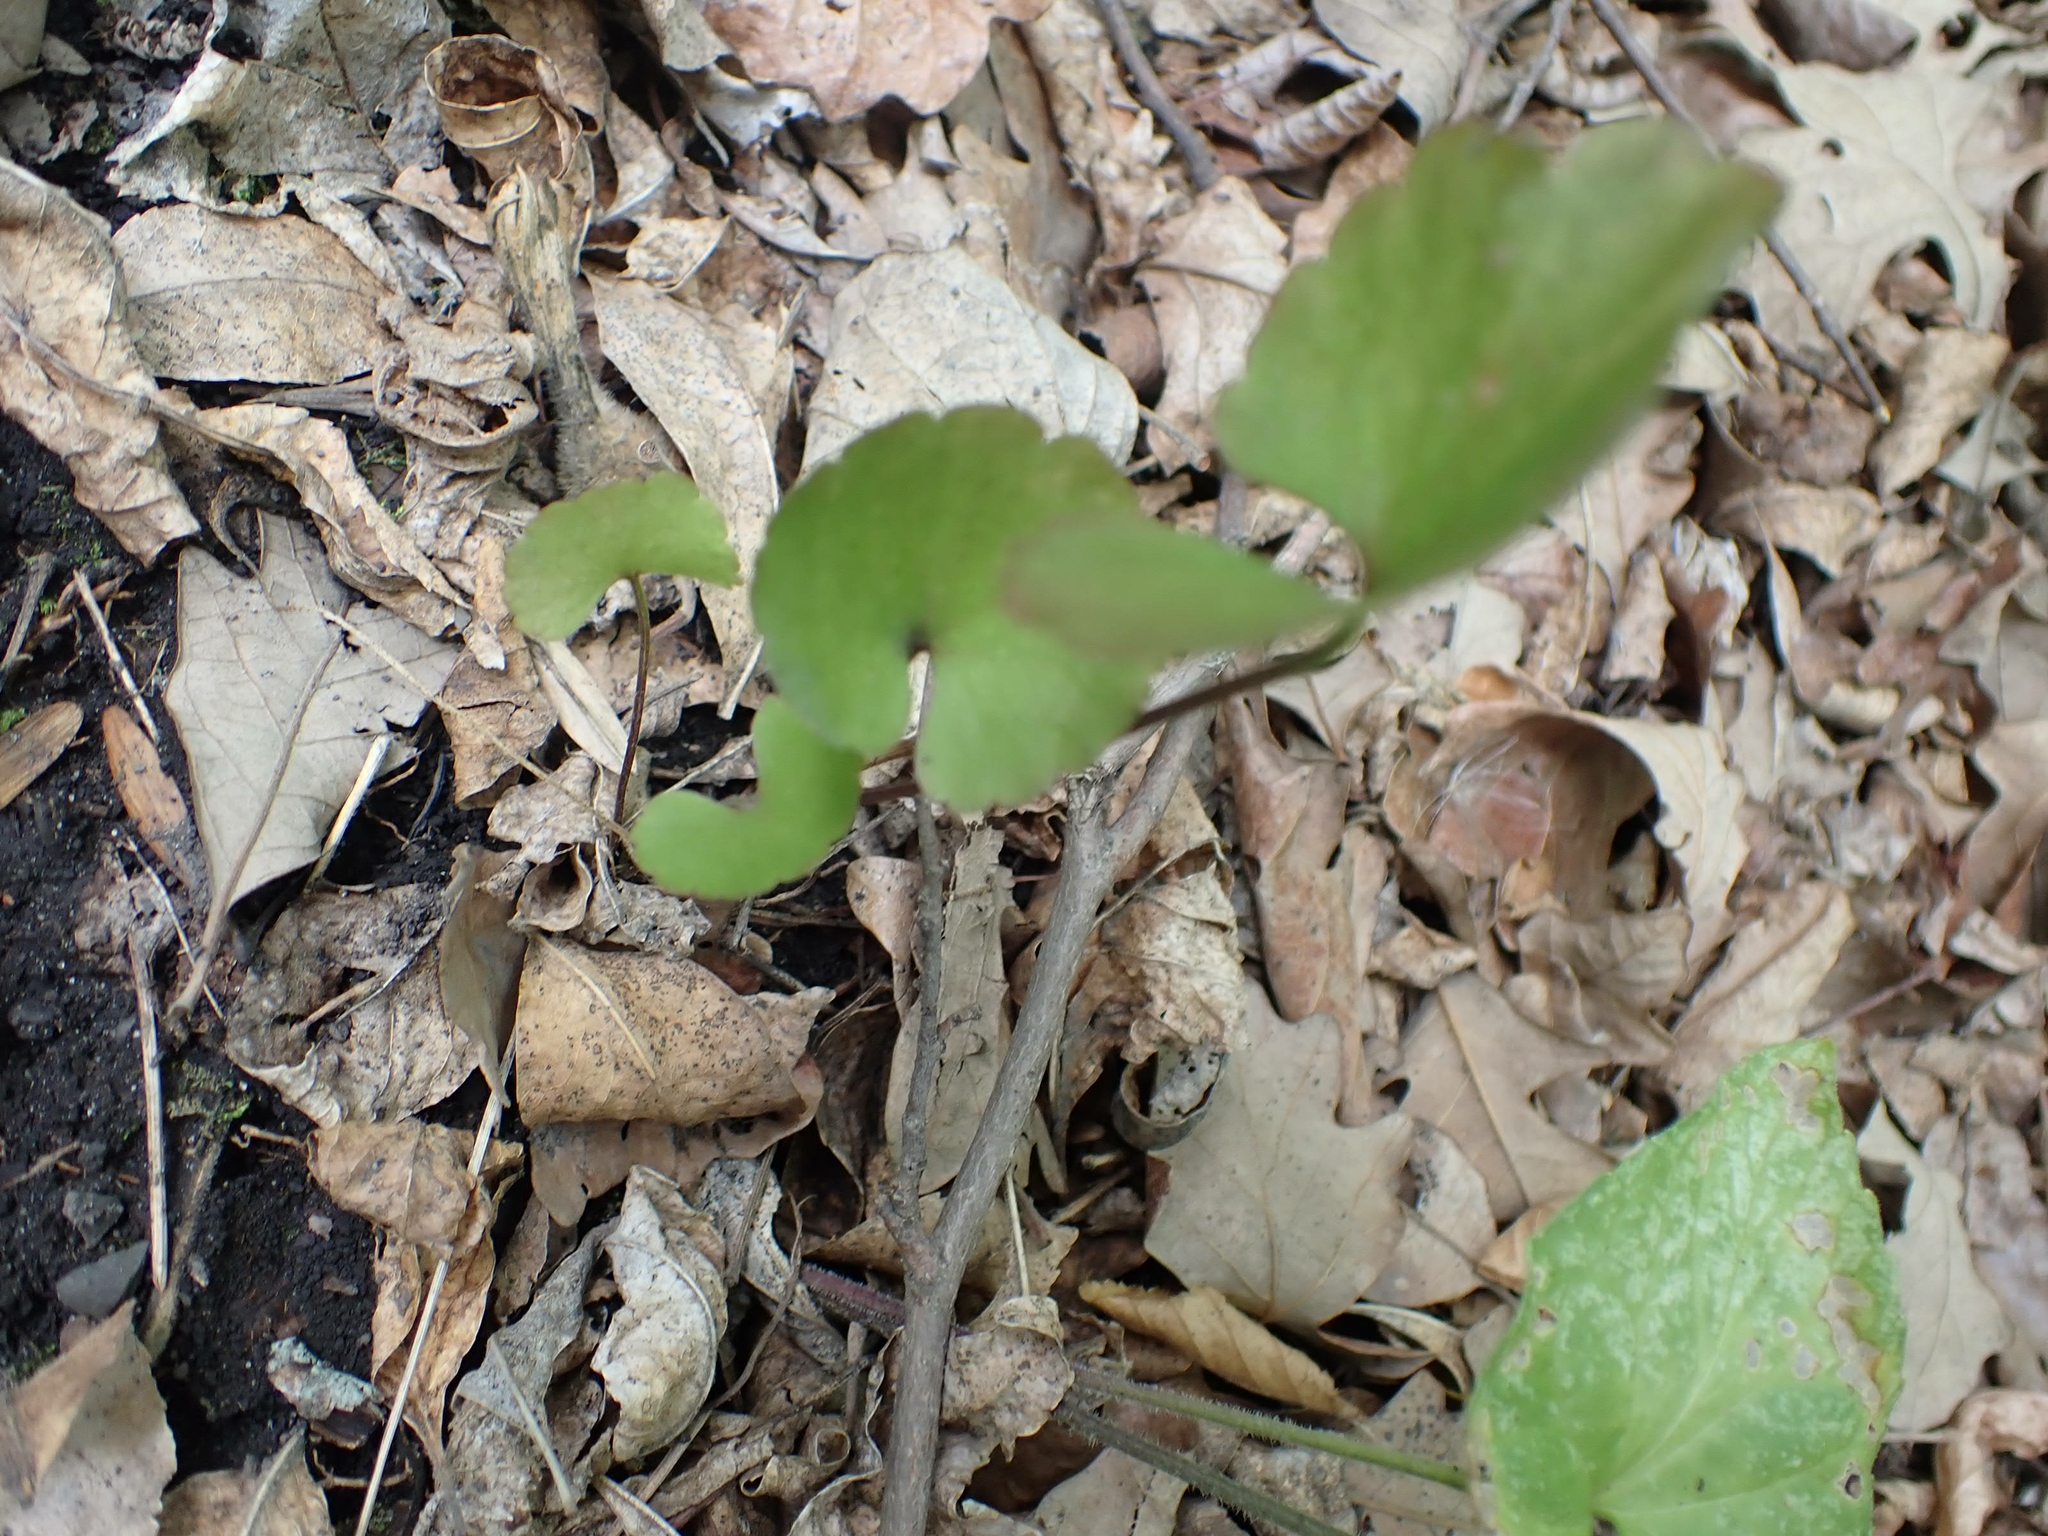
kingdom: Plantae
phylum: Tracheophyta
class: Magnoliopsida
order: Ranunculales
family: Ranunculaceae
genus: Ranunculus
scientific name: Ranunculus abortivus
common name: Early wood buttercup
